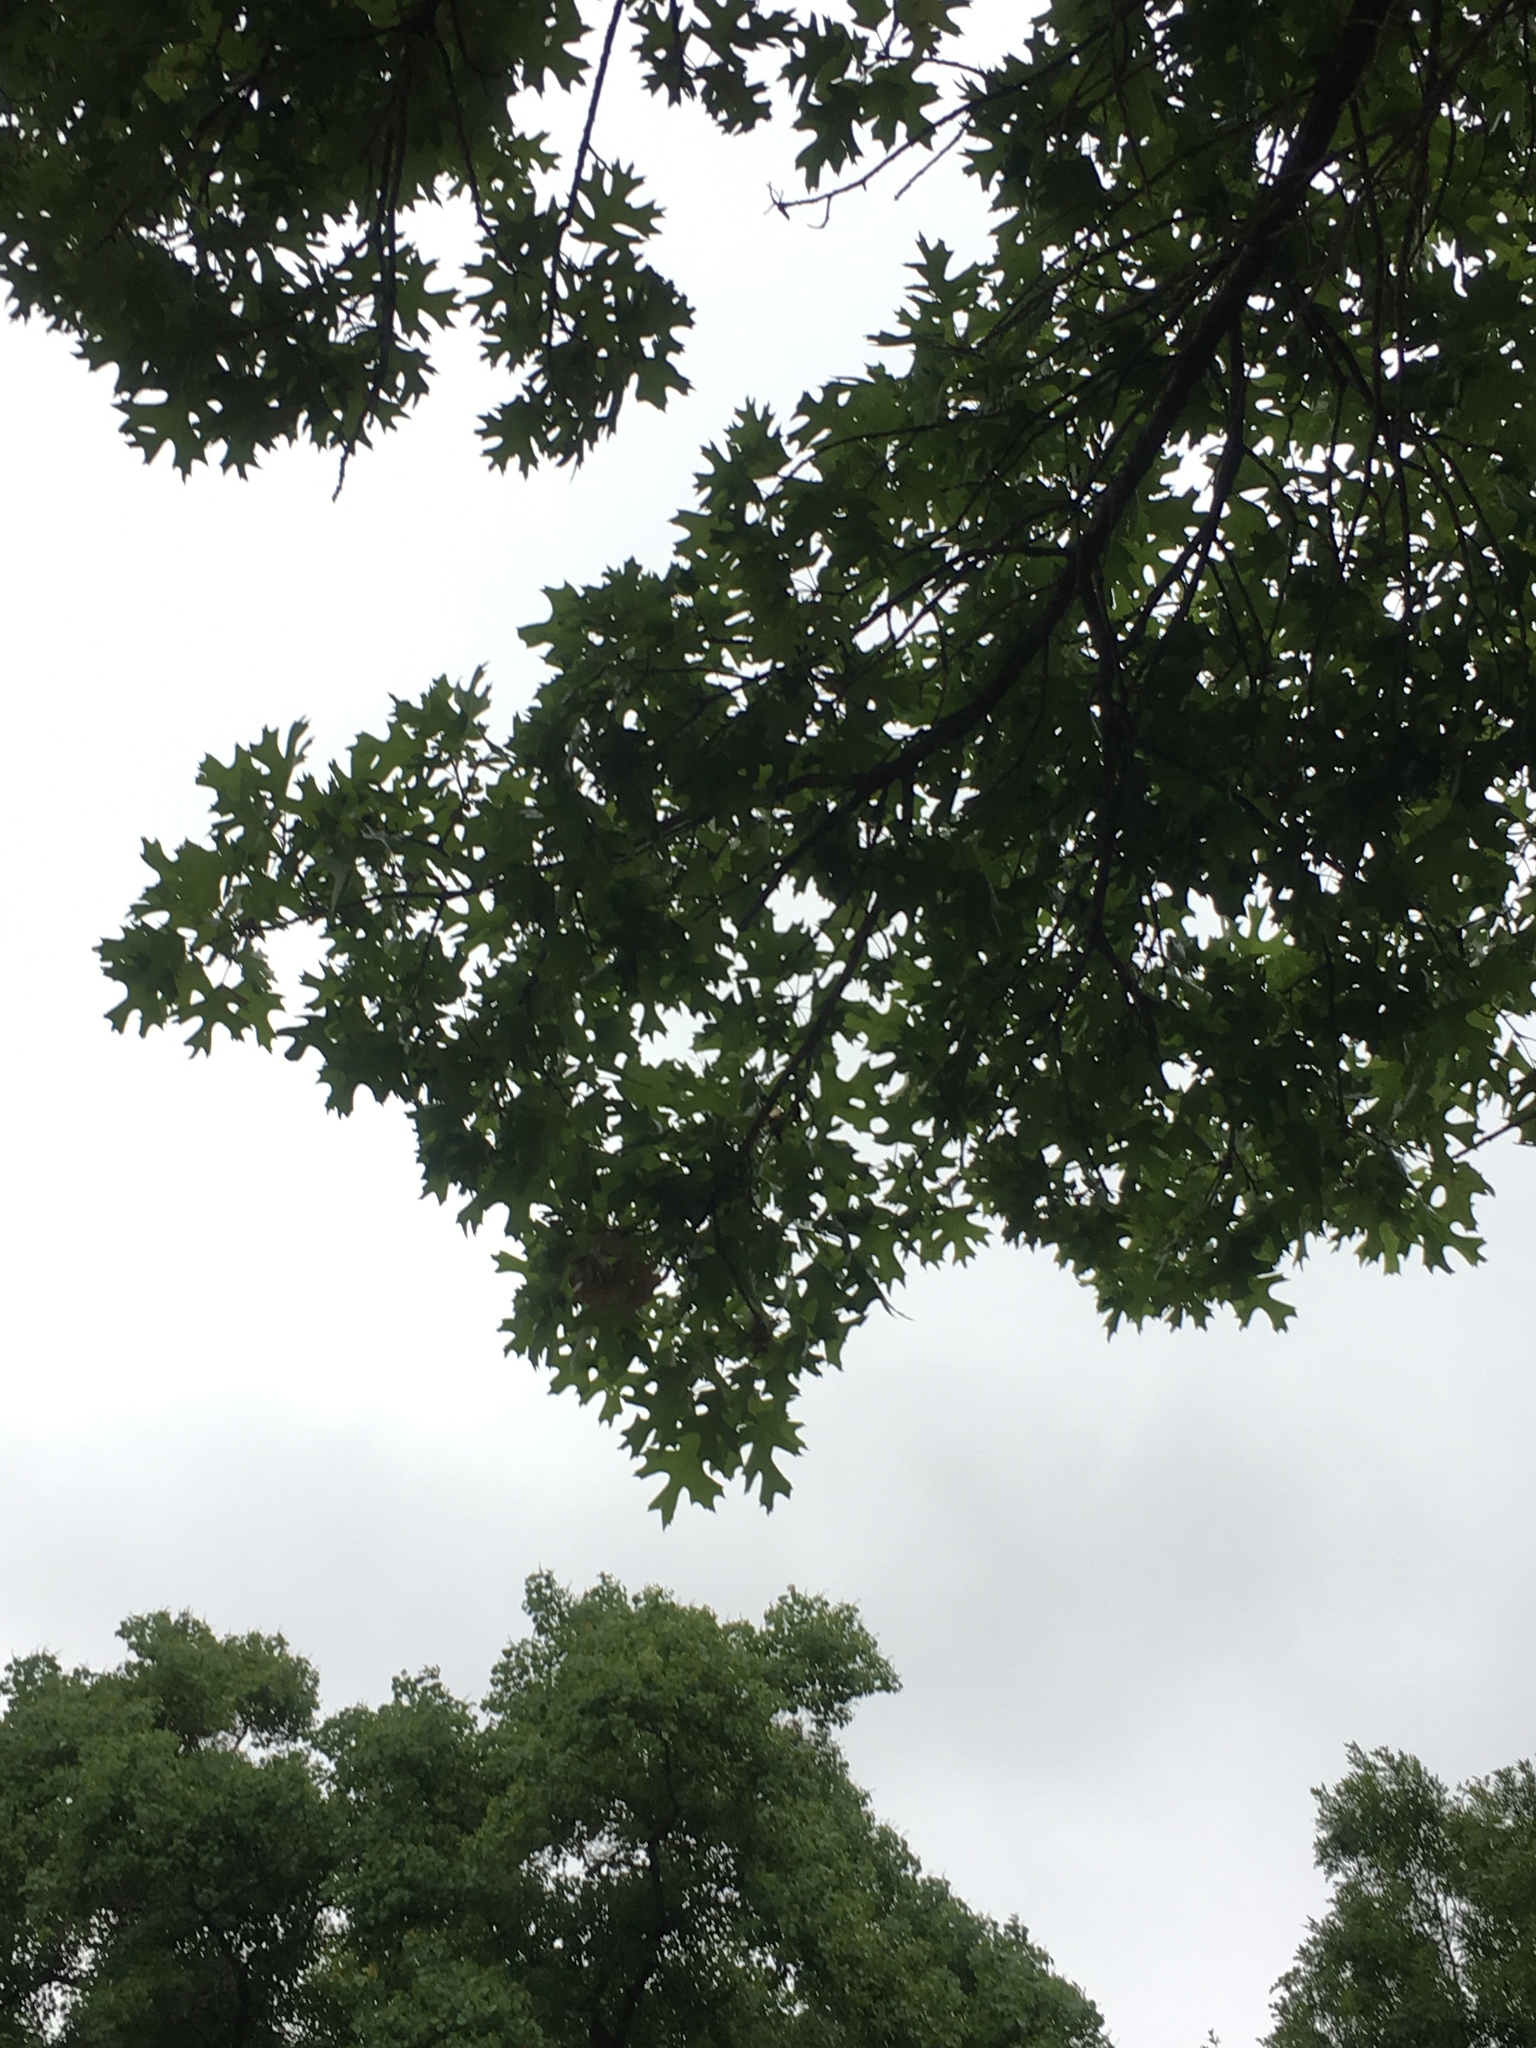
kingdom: Animalia
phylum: Arthropoda
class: Insecta
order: Hymenoptera
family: Cynipidae
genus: Amphibolips
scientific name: Amphibolips
